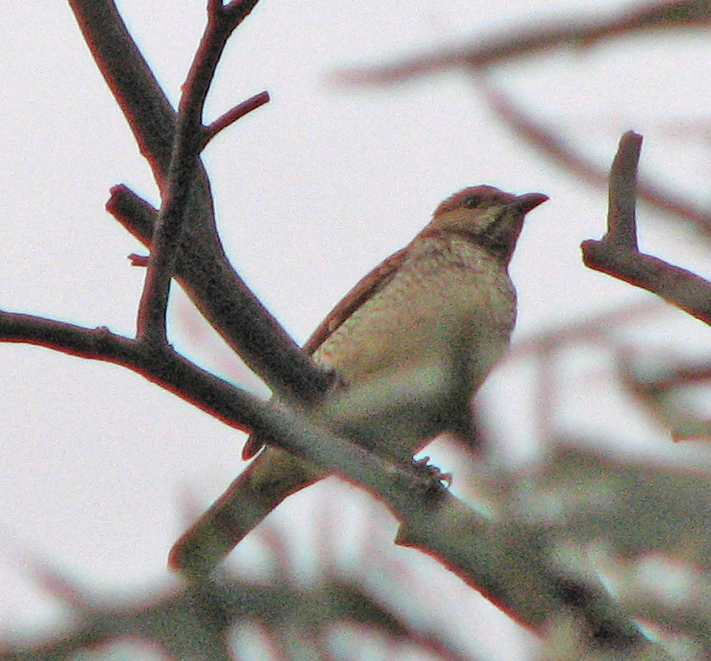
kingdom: Animalia
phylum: Chordata
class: Aves
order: Passeriformes
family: Ptilonorhynchidae
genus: Chlamydera
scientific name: Chlamydera maculata
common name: Spotted bowerbird
